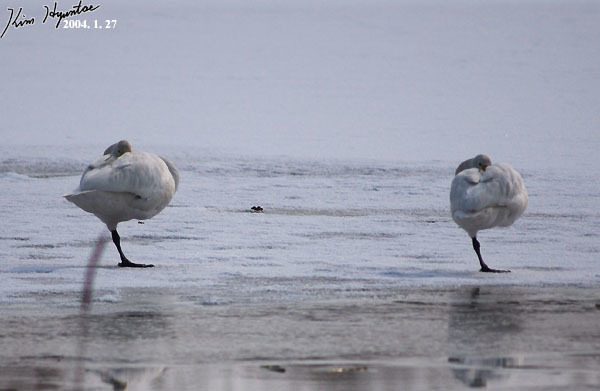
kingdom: Animalia
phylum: Chordata
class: Aves
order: Anseriformes
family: Anatidae
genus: Cygnus
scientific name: Cygnus cygnus
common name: Whooper swan
